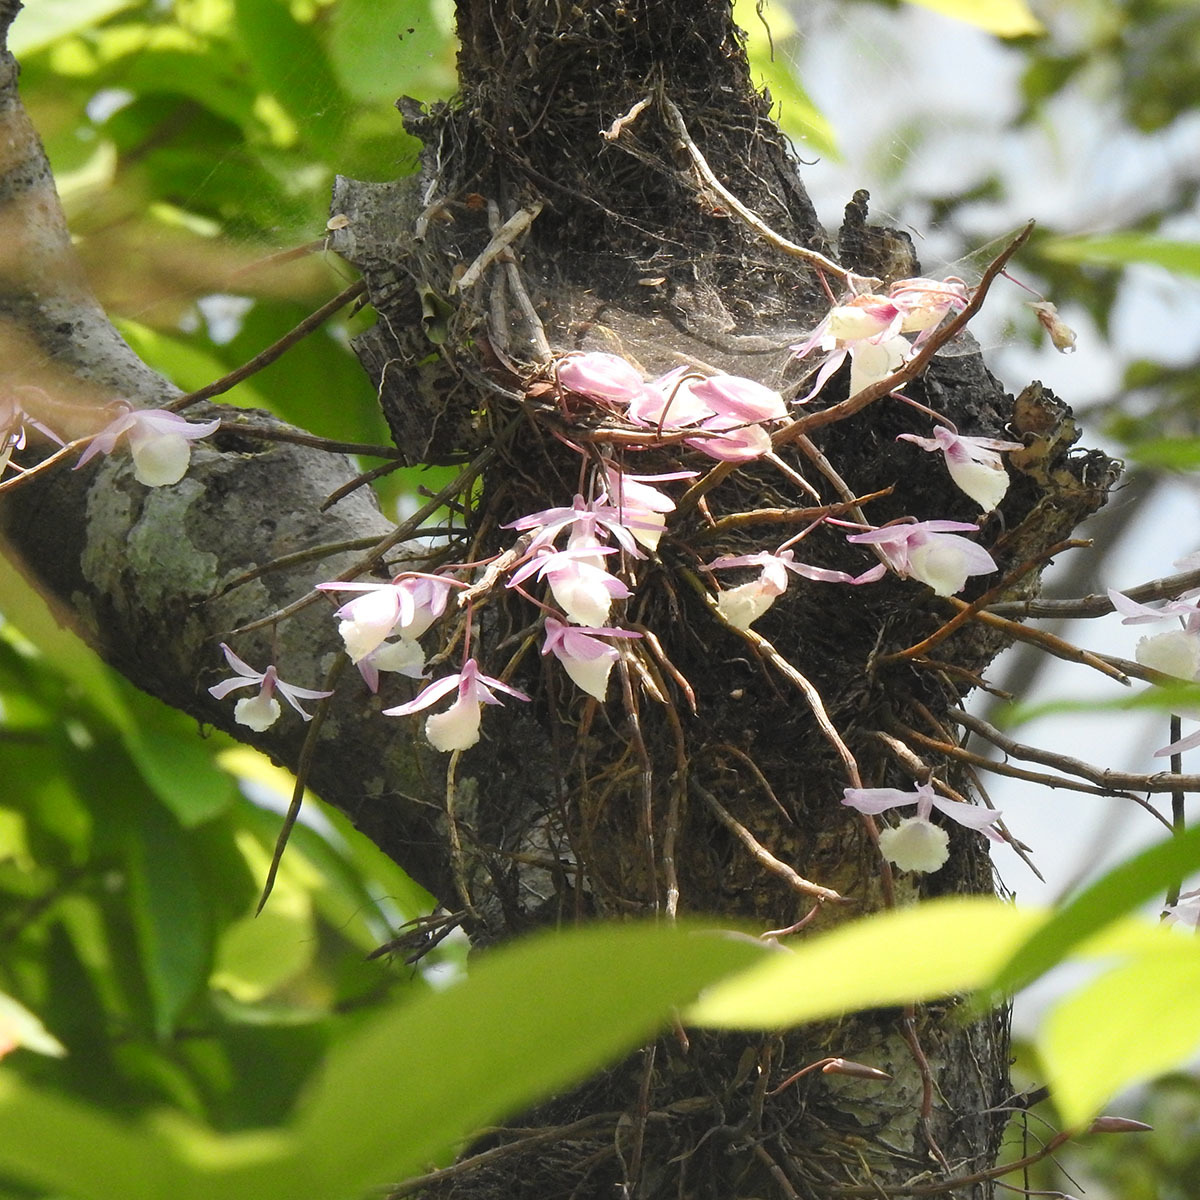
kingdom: Plantae
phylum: Tracheophyta
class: Liliopsida
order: Asparagales
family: Orchidaceae
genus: Dendrobium
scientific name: Dendrobium aphyllum
